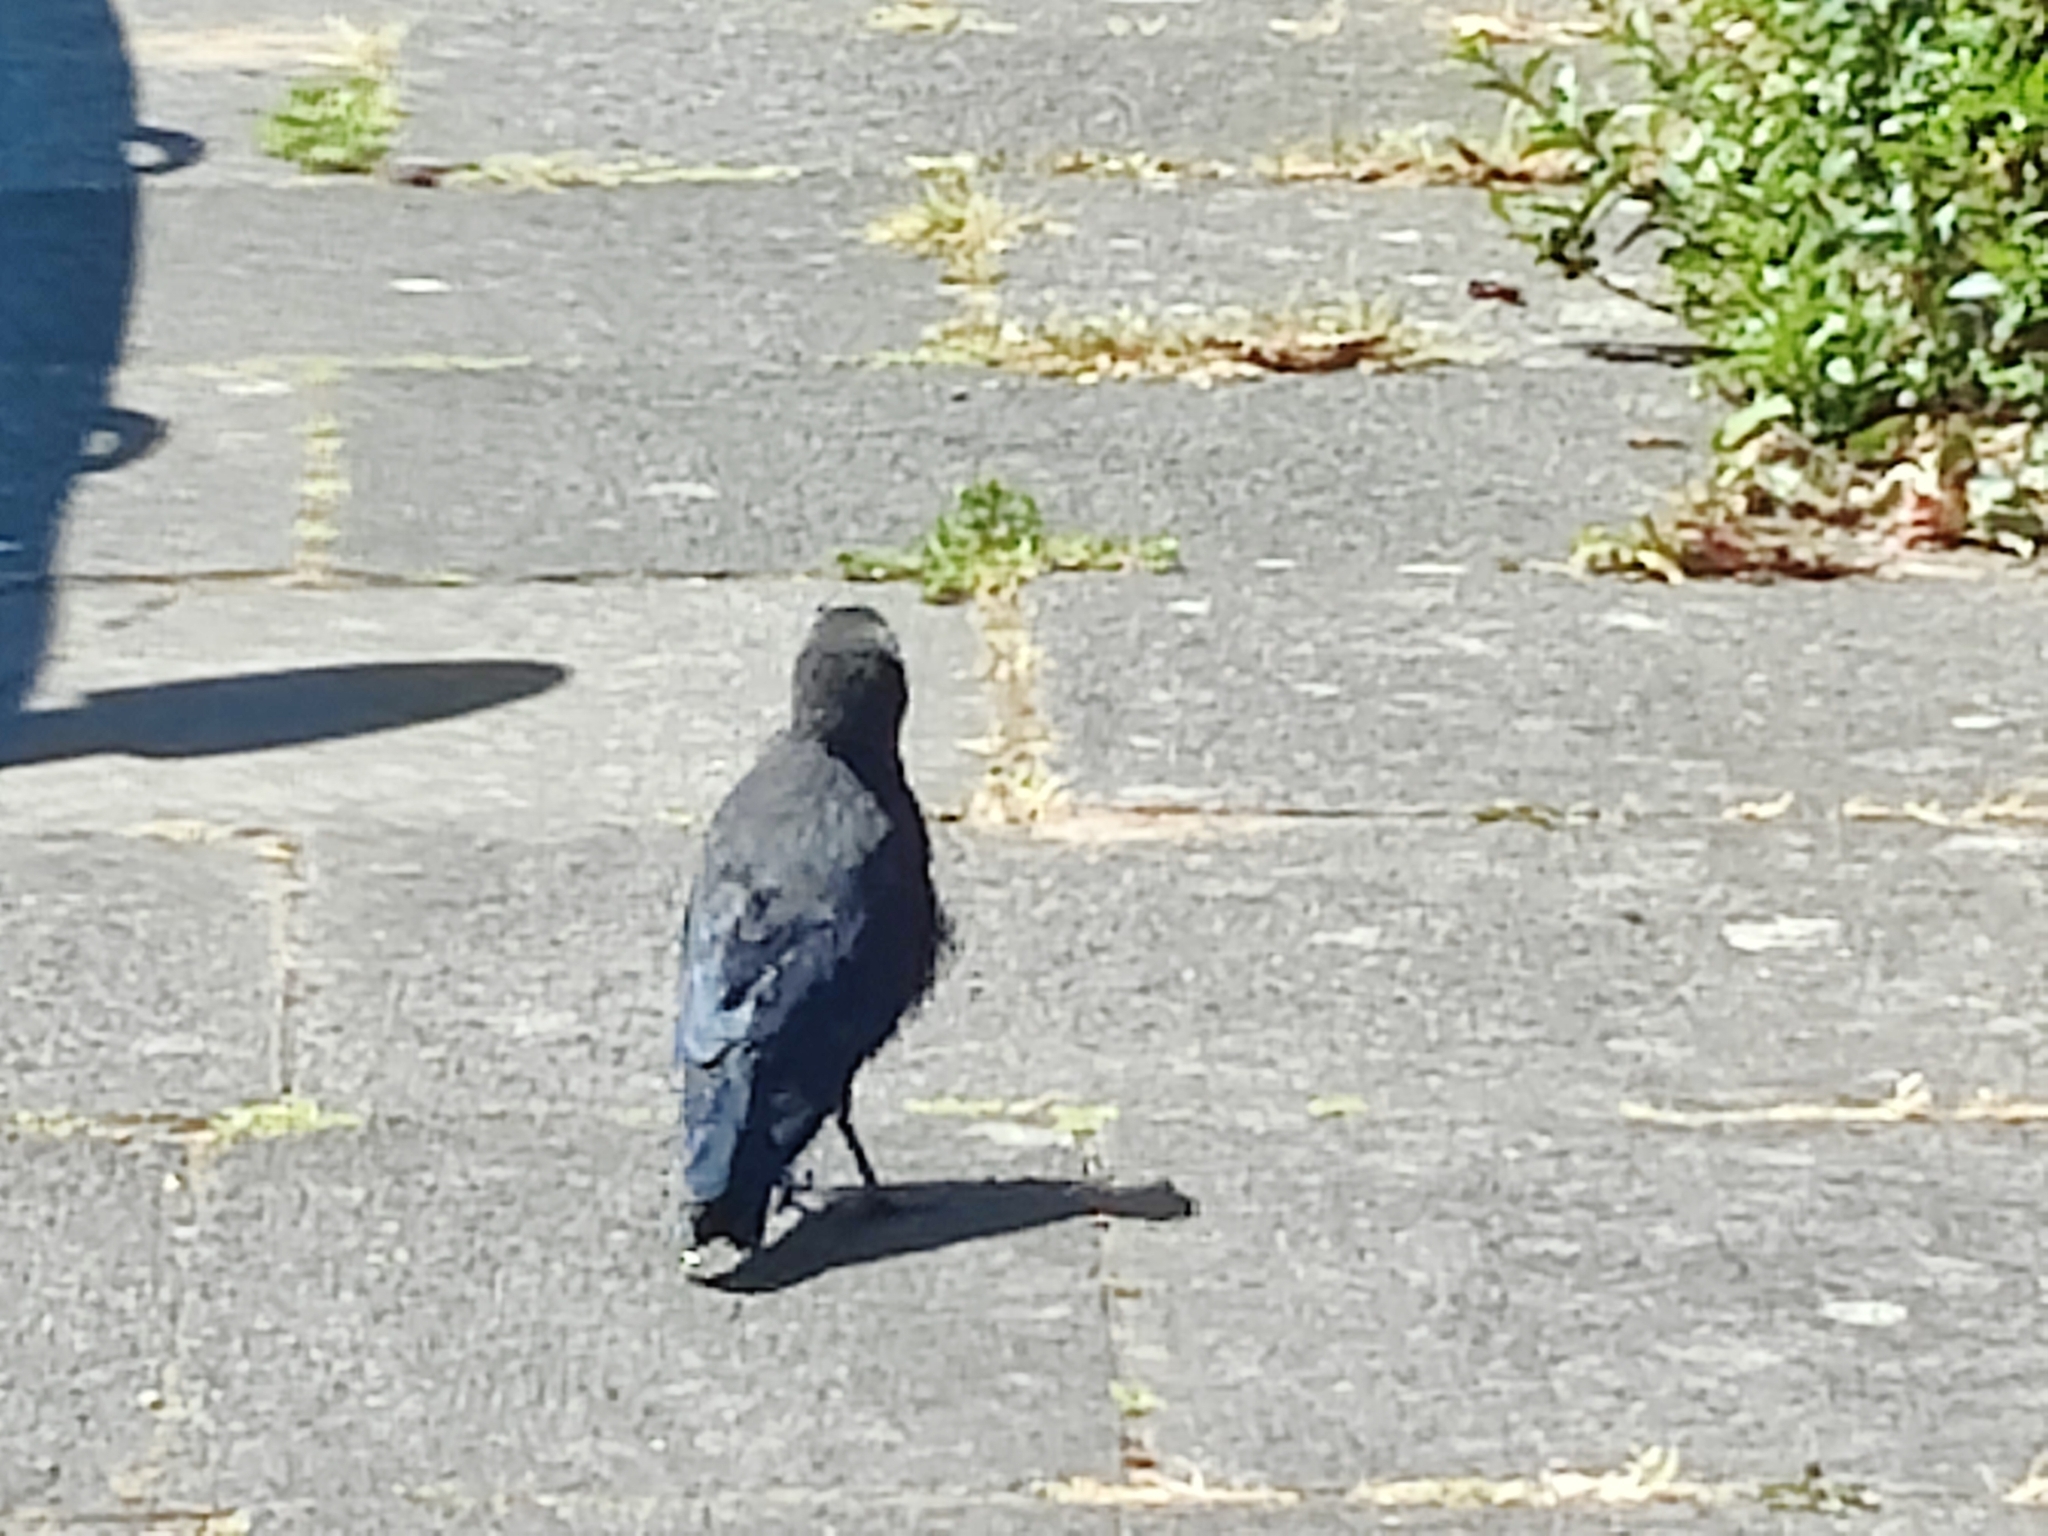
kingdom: Animalia
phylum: Chordata
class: Aves
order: Passeriformes
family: Corvidae
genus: Coloeus
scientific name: Coloeus monedula
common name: Western jackdaw
